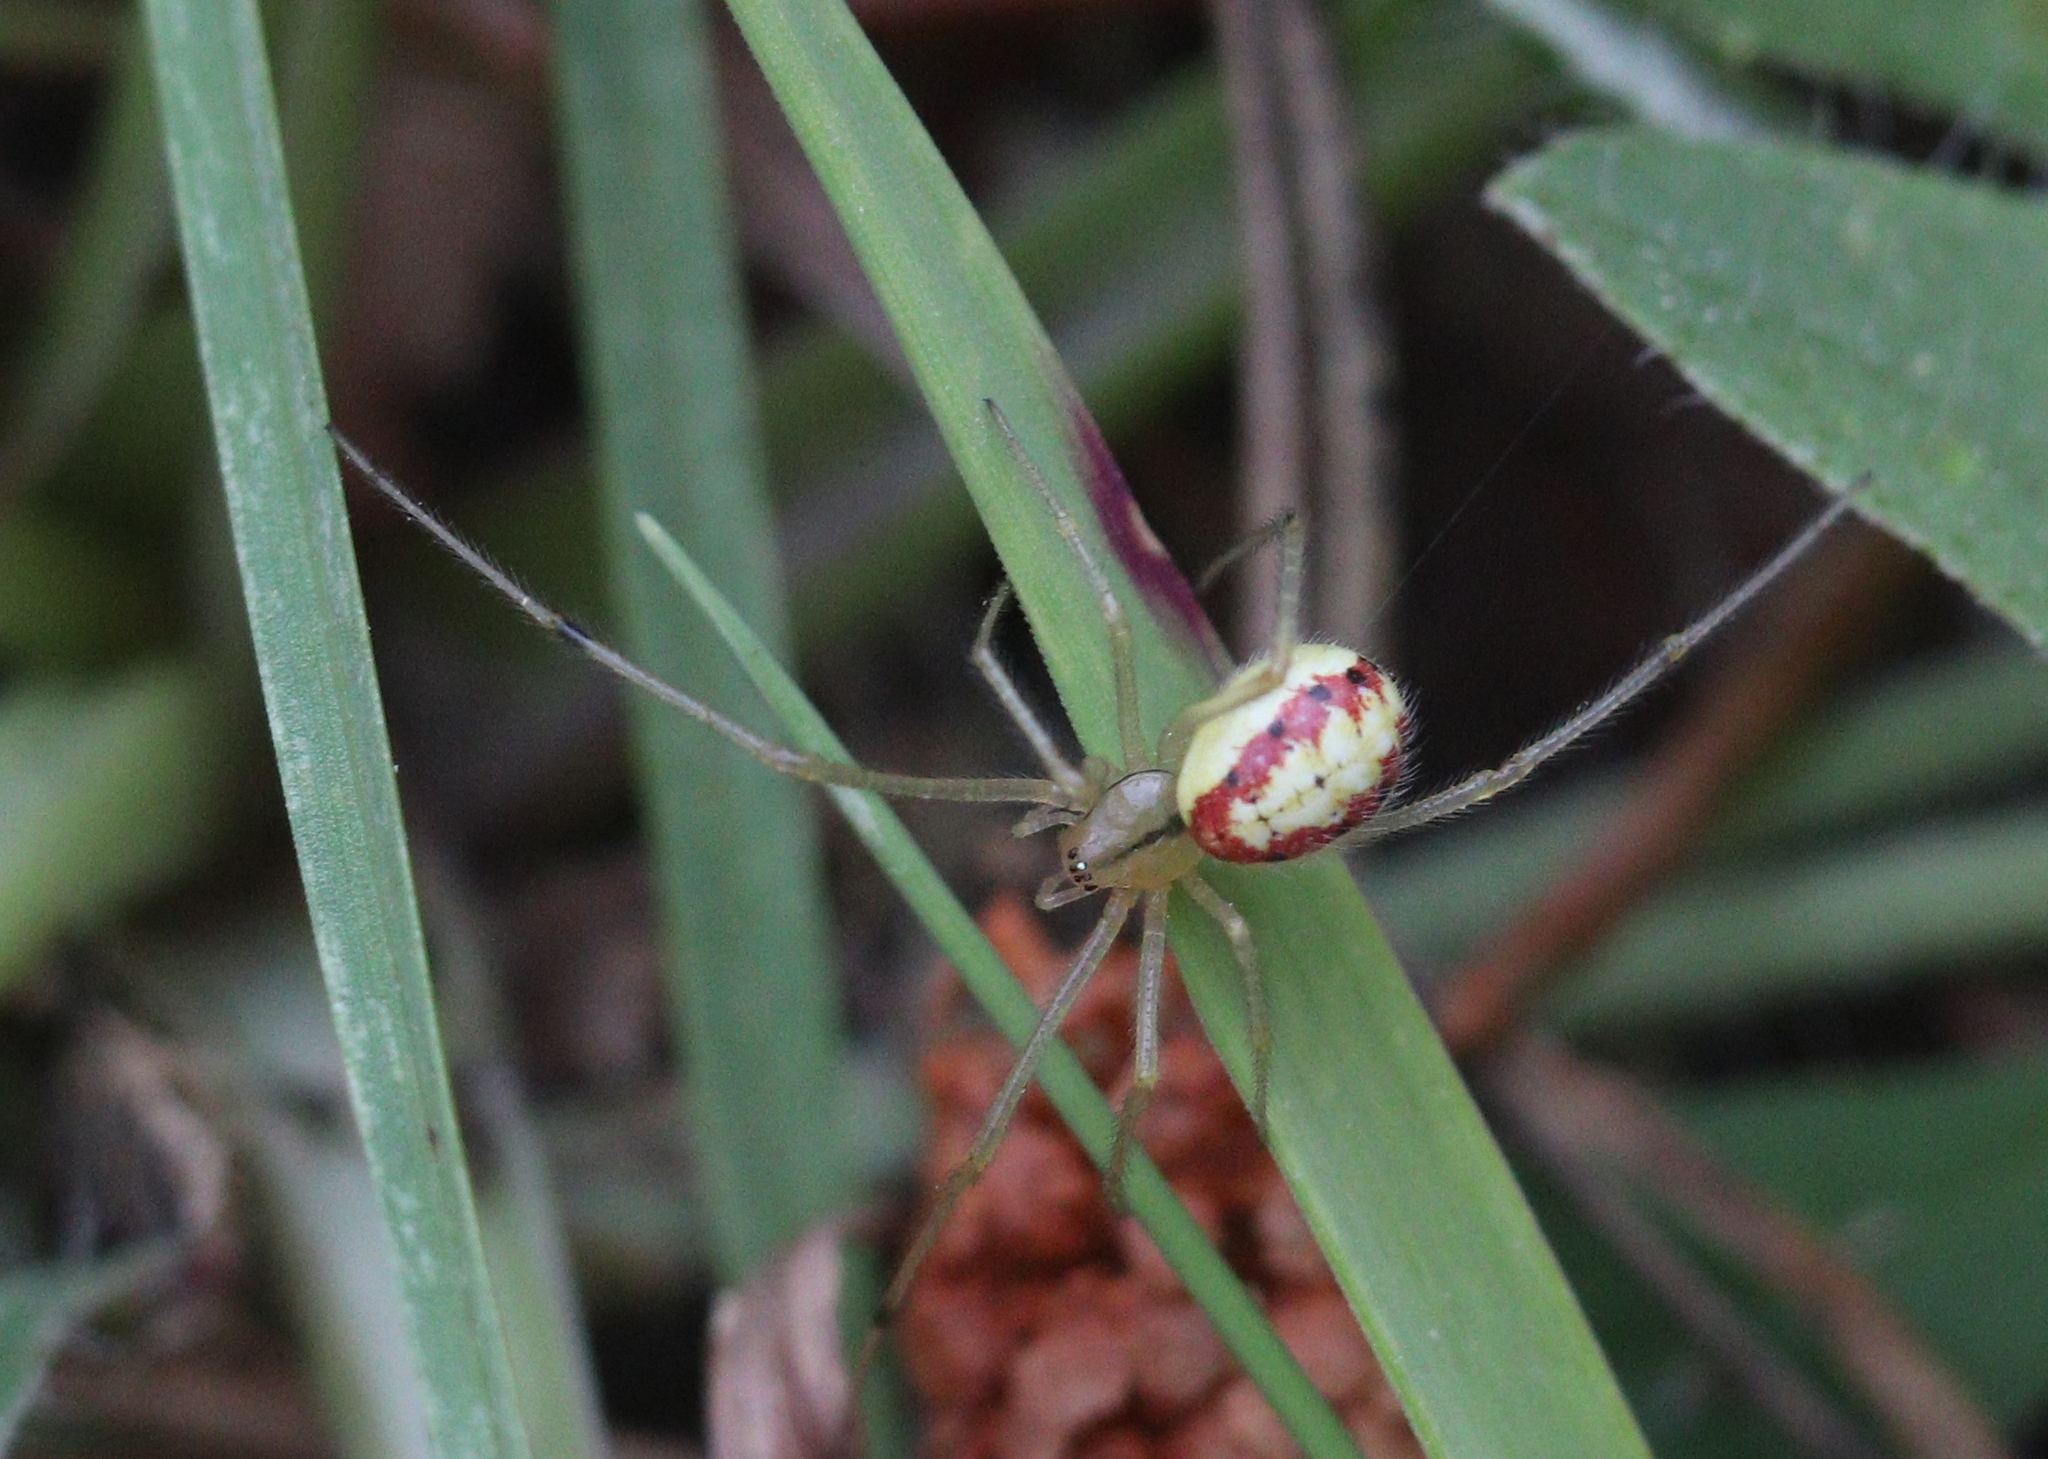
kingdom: Animalia
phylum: Arthropoda
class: Arachnida
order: Araneae
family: Theridiidae
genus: Enoplognatha
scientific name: Enoplognatha
